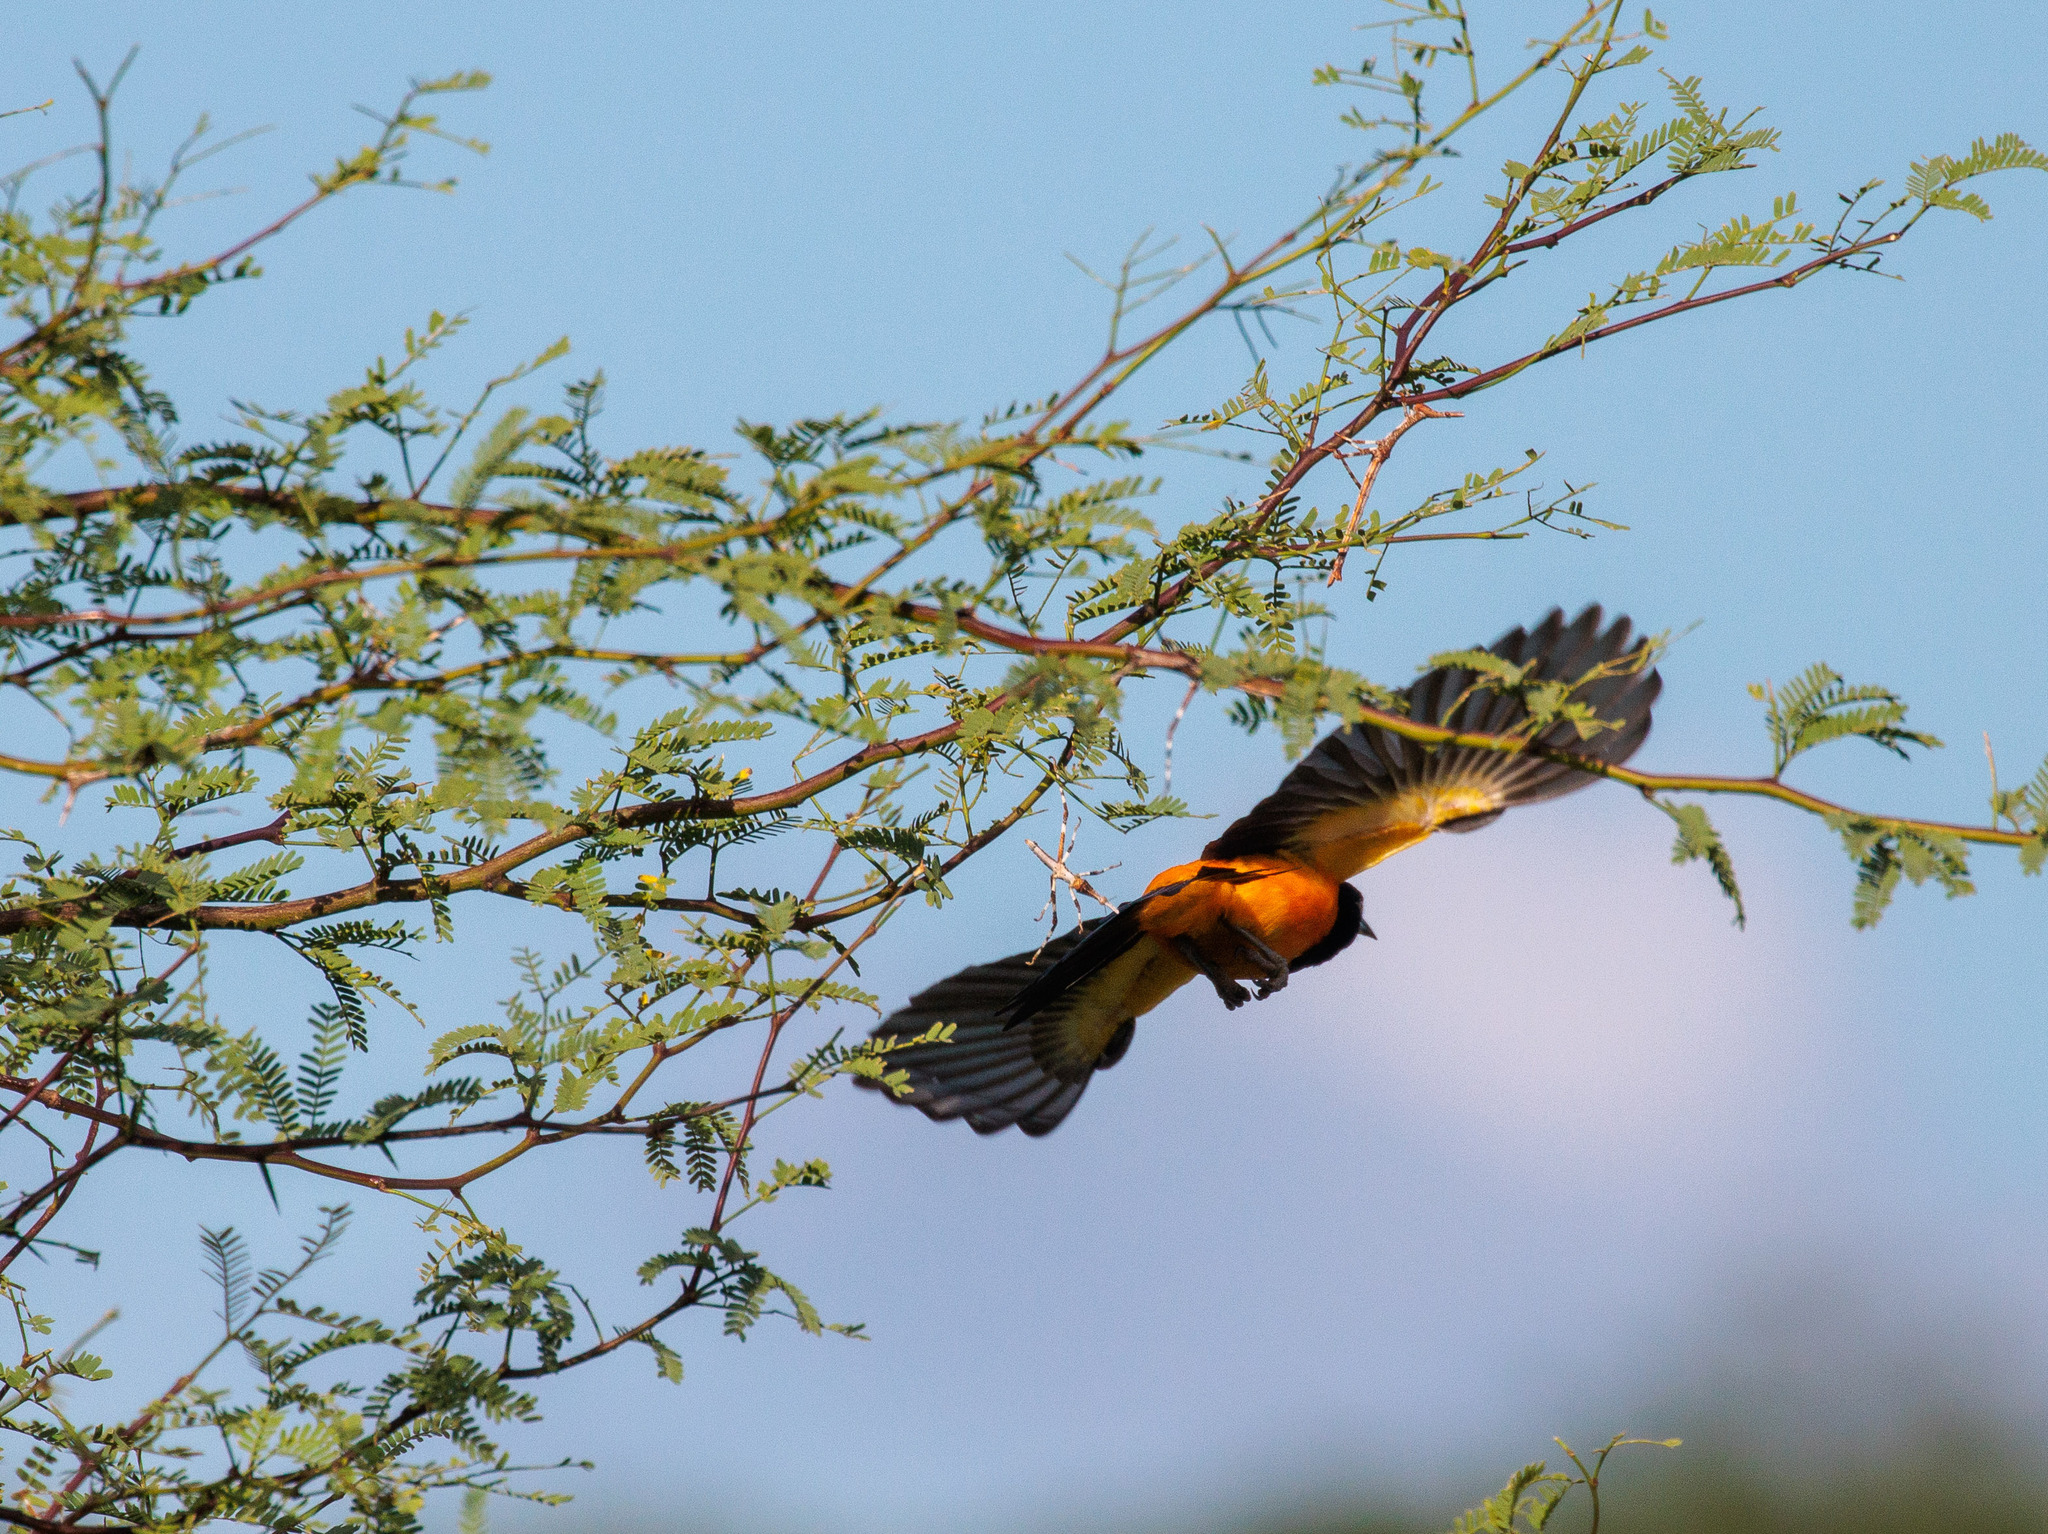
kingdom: Animalia
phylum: Chordata
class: Aves
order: Passeriformes
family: Icteridae
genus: Icterus
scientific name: Icterus icterus
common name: Venezuelan troupial
